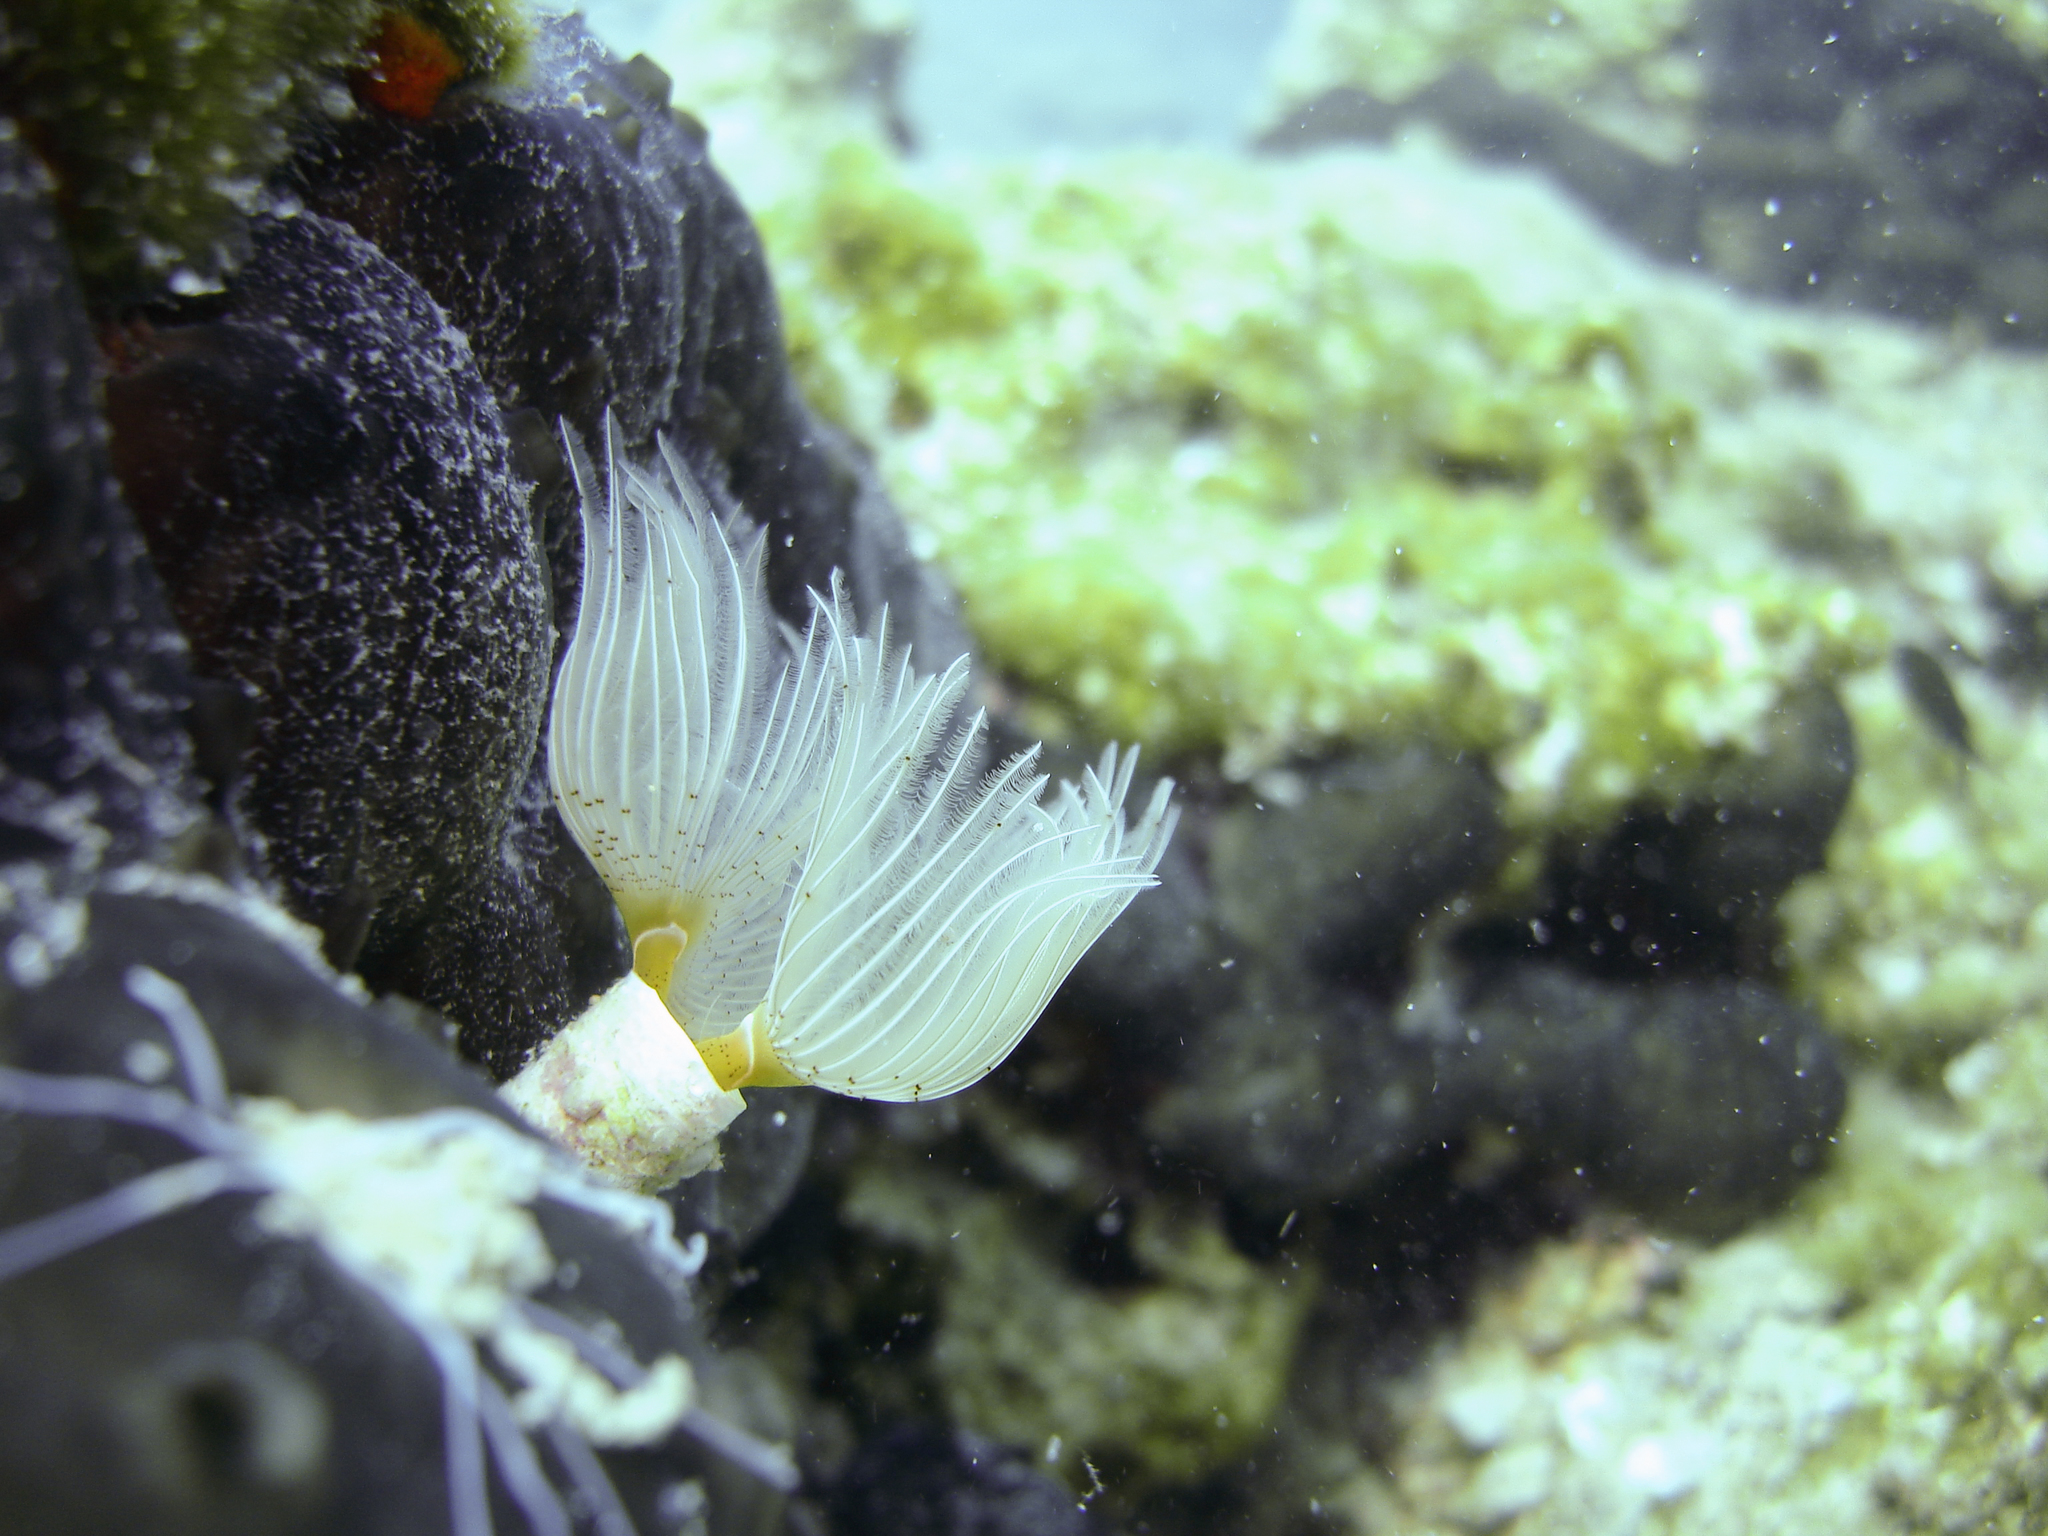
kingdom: Animalia
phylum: Annelida
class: Polychaeta
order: Sabellida
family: Serpulidae
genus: Protula
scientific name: Protula tubularia
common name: Red-spotted horseshoe
